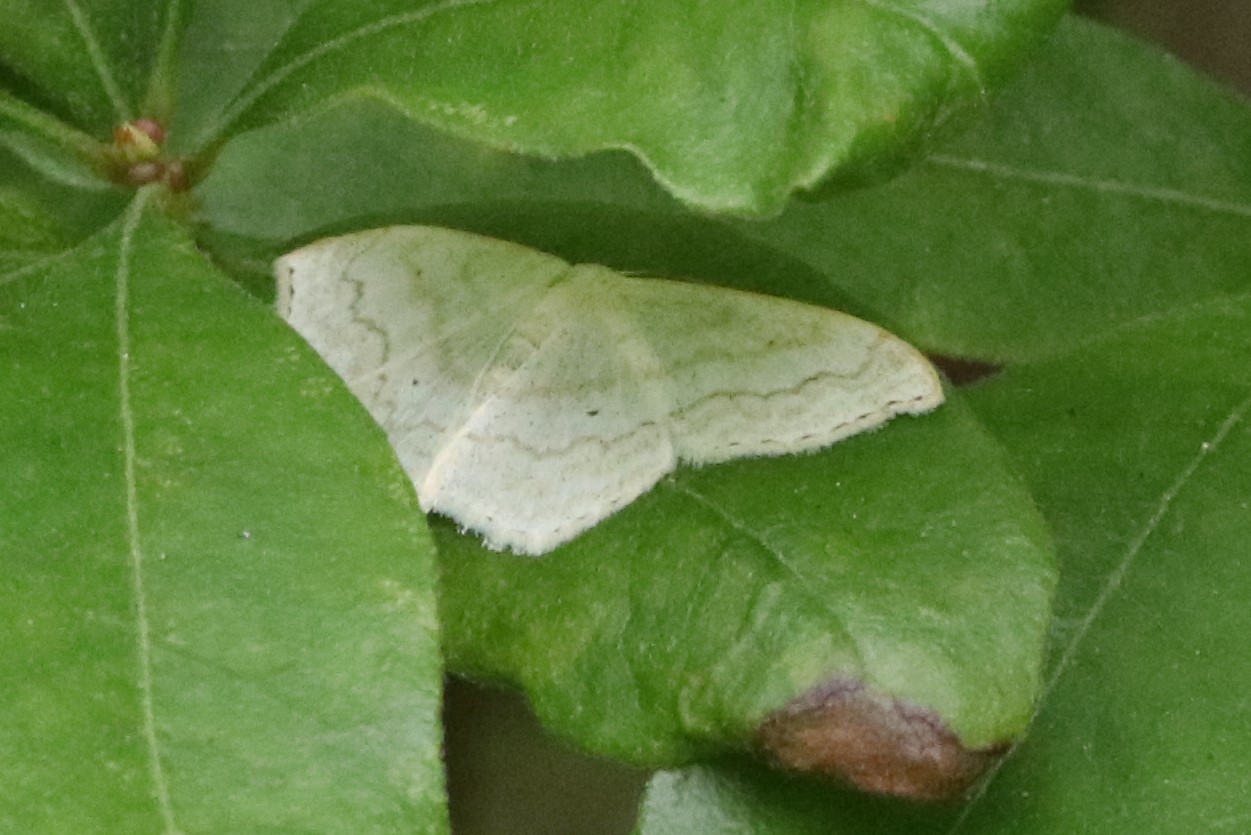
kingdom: Animalia
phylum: Arthropoda
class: Insecta
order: Lepidoptera
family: Geometridae
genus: Scopula
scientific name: Scopula limboundata
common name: Large lace border
